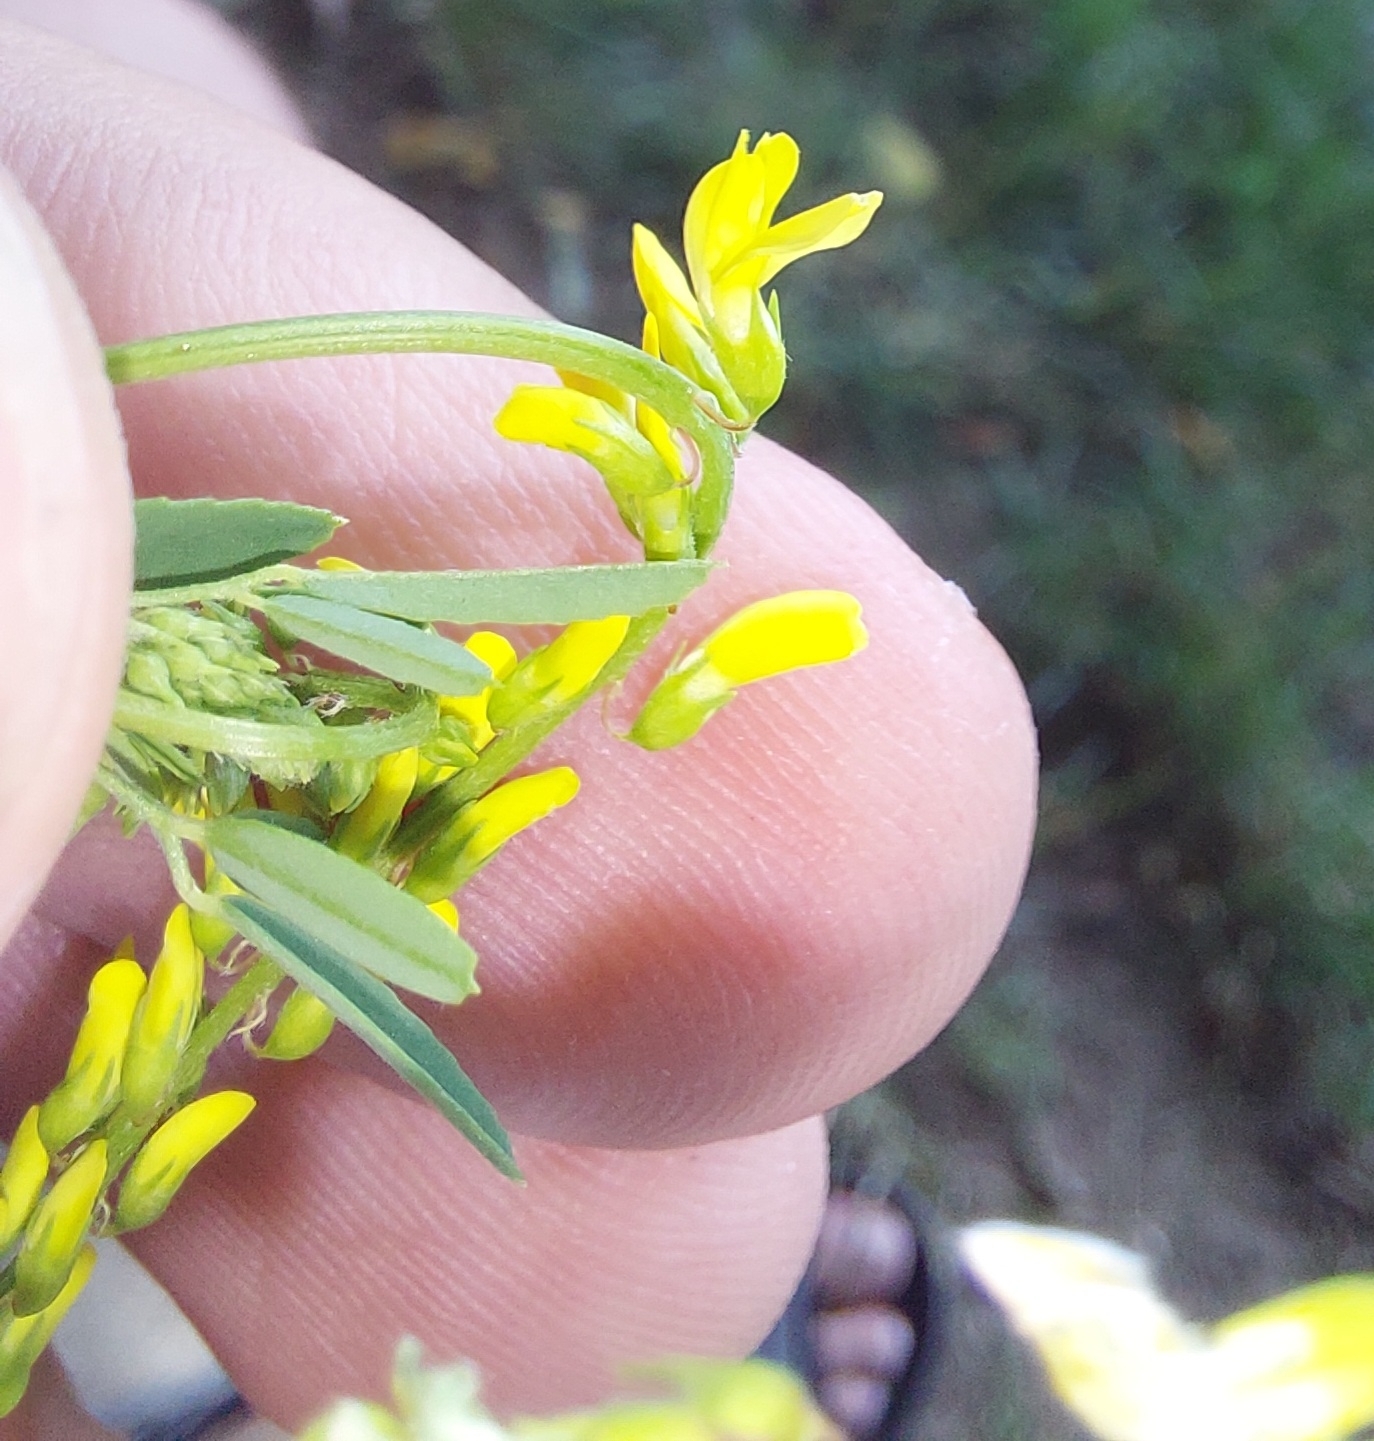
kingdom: Plantae
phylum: Tracheophyta
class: Magnoliopsida
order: Fabales
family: Fabaceae
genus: Melilotus
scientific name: Melilotus officinalis
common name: Sweetclover
